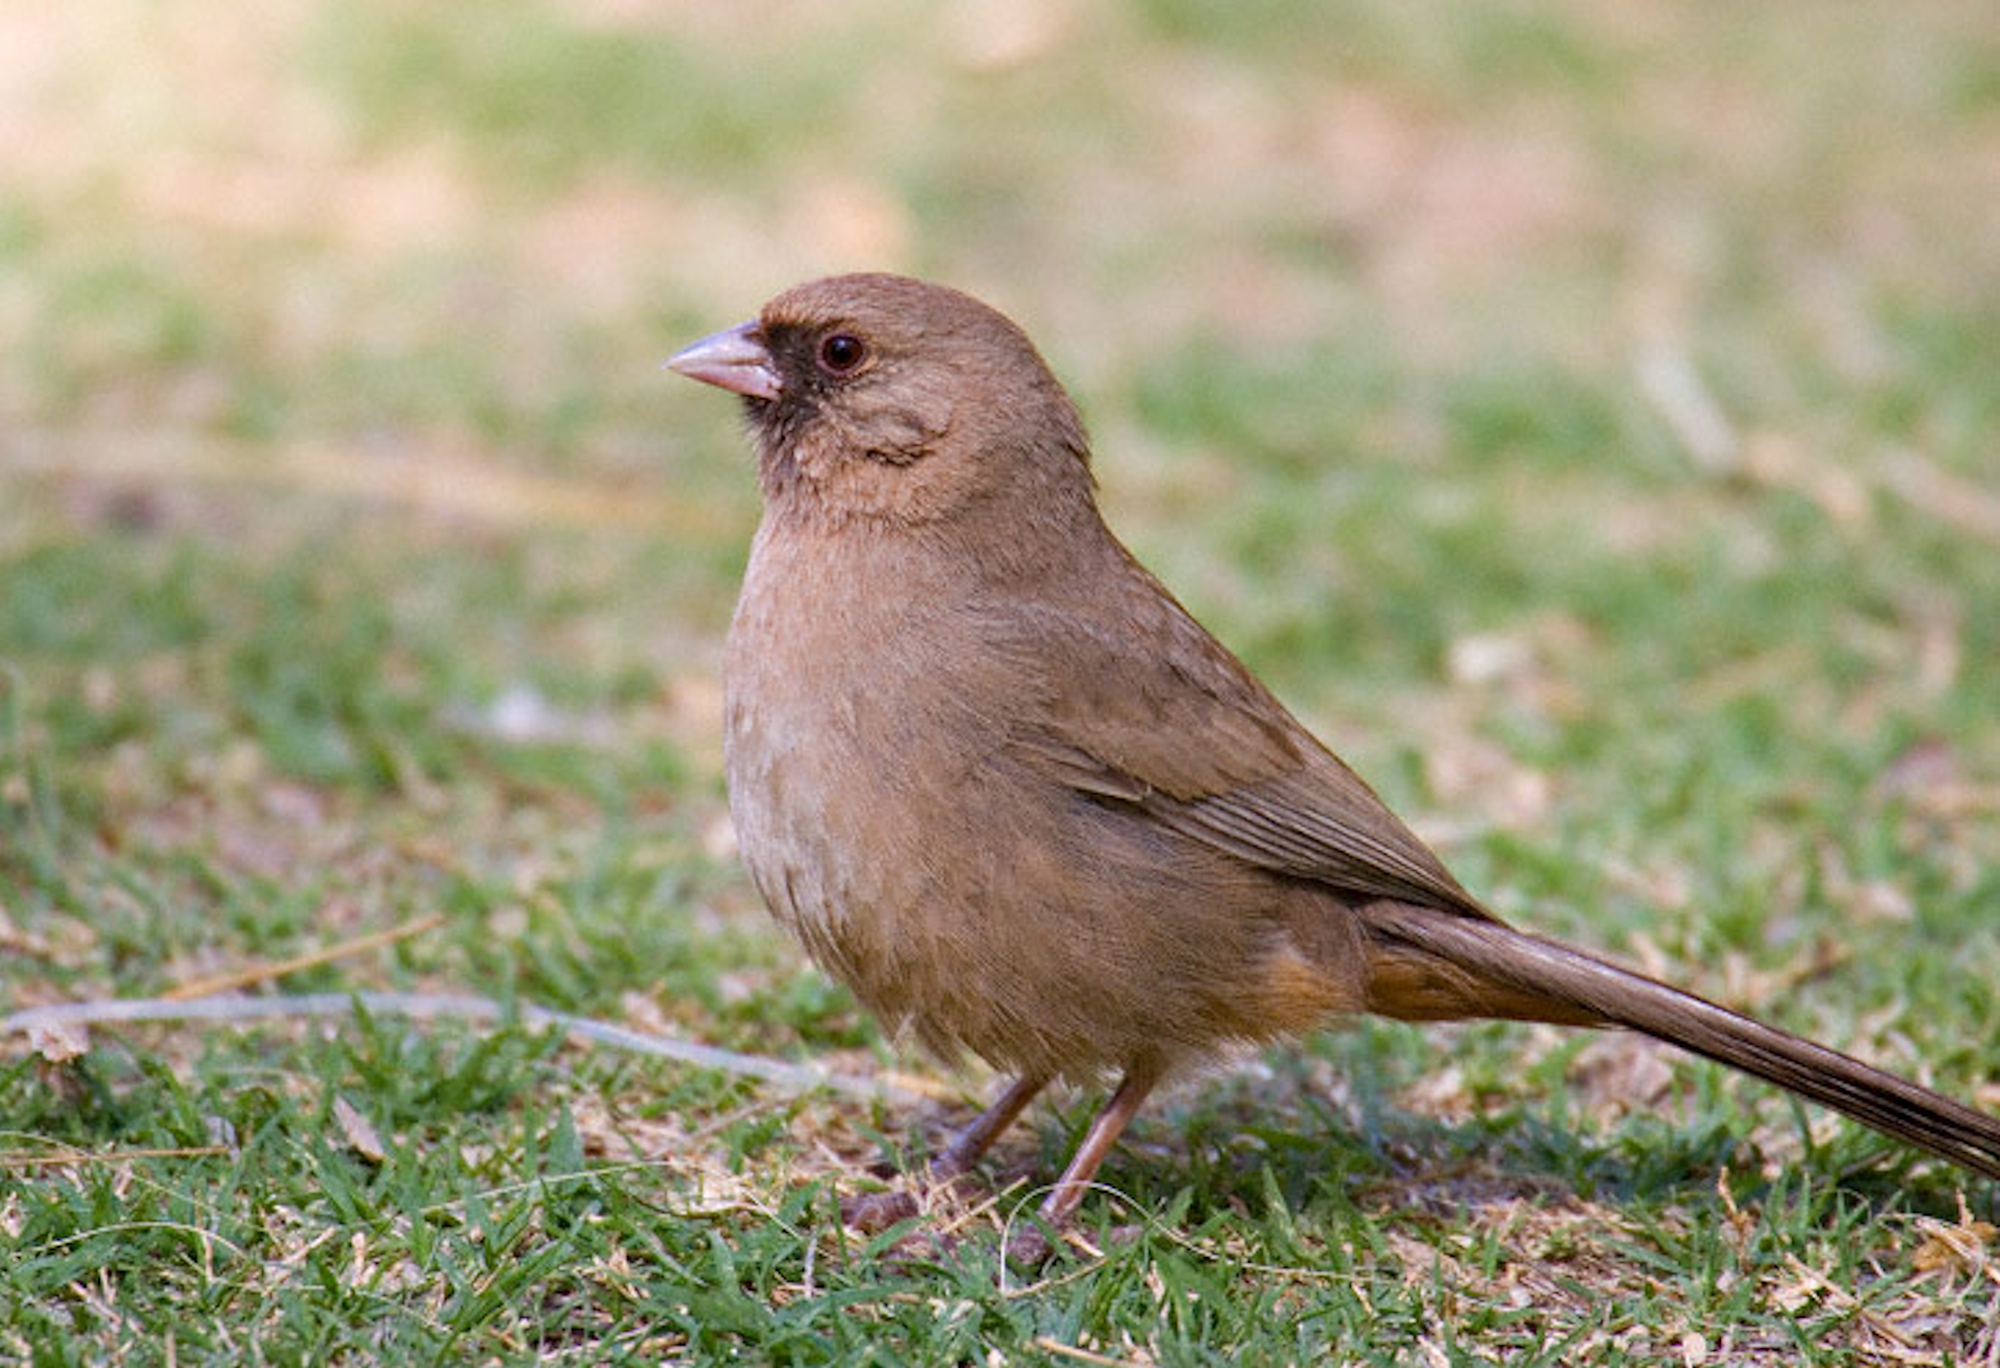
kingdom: Animalia
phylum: Chordata
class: Aves
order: Passeriformes
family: Passerellidae
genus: Melozone
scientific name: Melozone aberti
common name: Abert's towhee
